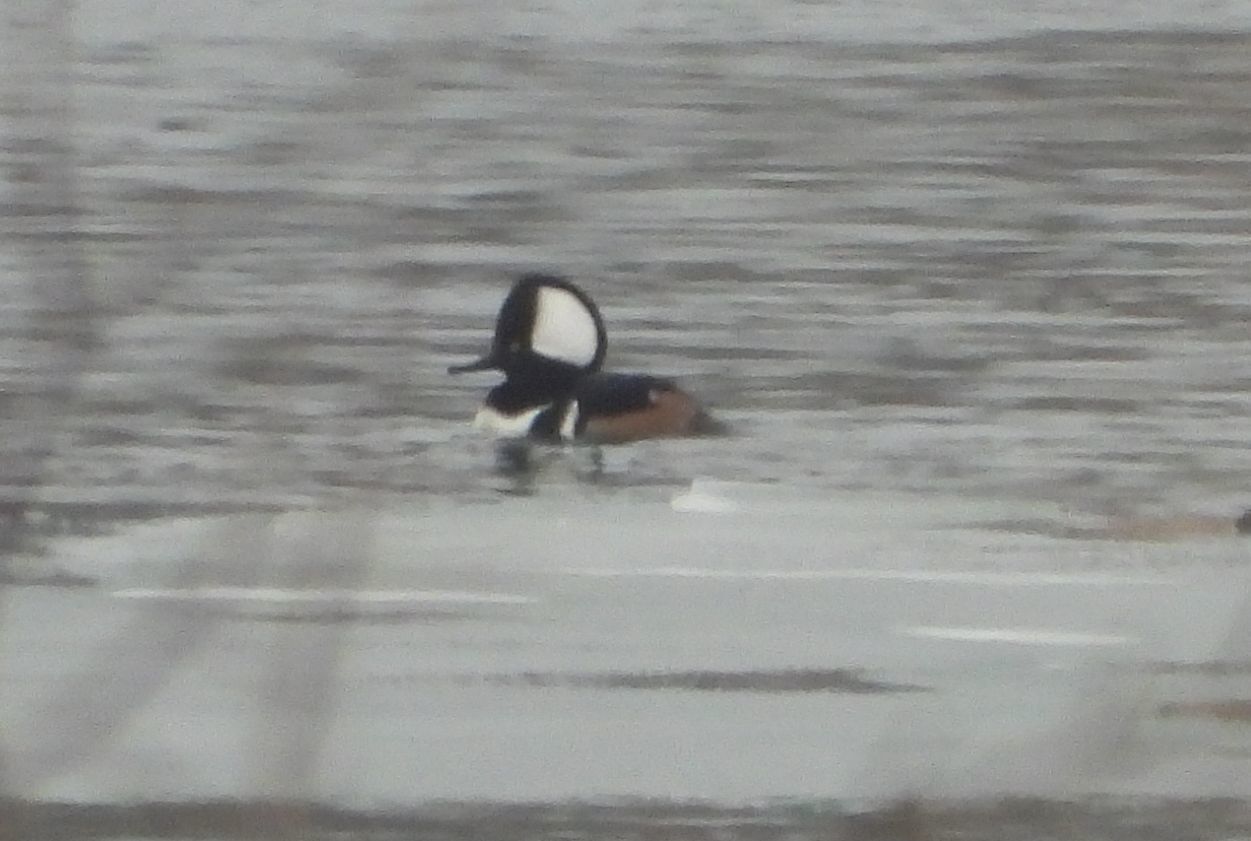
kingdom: Animalia
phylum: Chordata
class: Aves
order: Anseriformes
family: Anatidae
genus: Lophodytes
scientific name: Lophodytes cucullatus
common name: Hooded merganser
